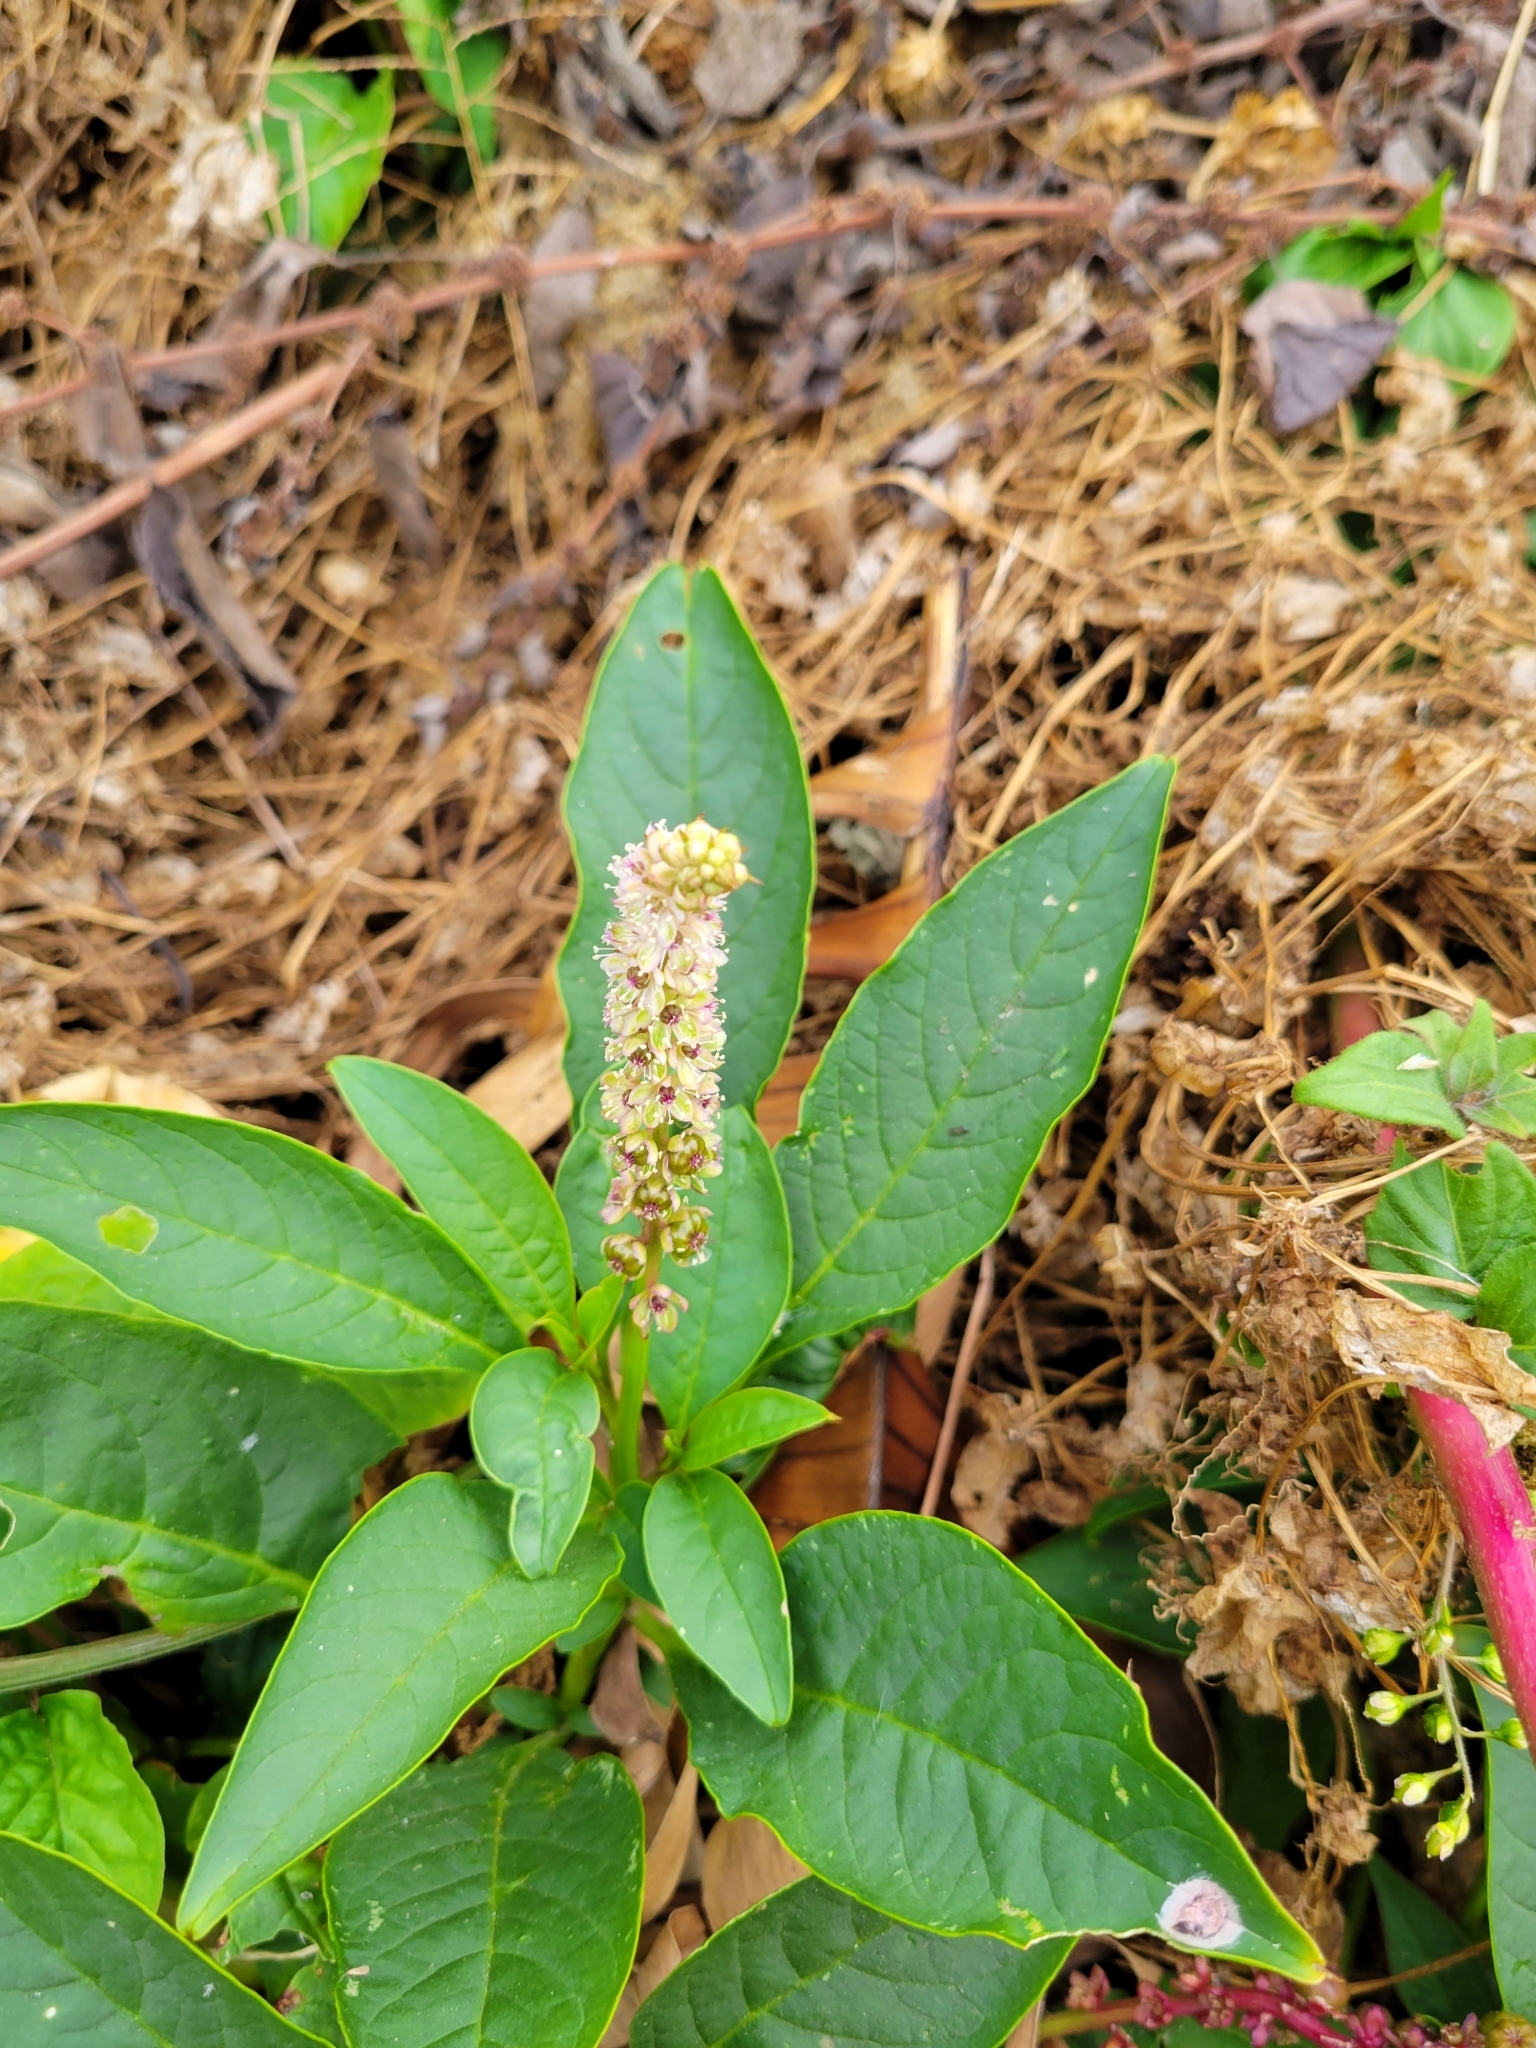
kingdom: Plantae
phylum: Tracheophyta
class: Magnoliopsida
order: Caryophyllales
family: Phytolaccaceae
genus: Phytolacca
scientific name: Phytolacca icosandra
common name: Button pokeweed
